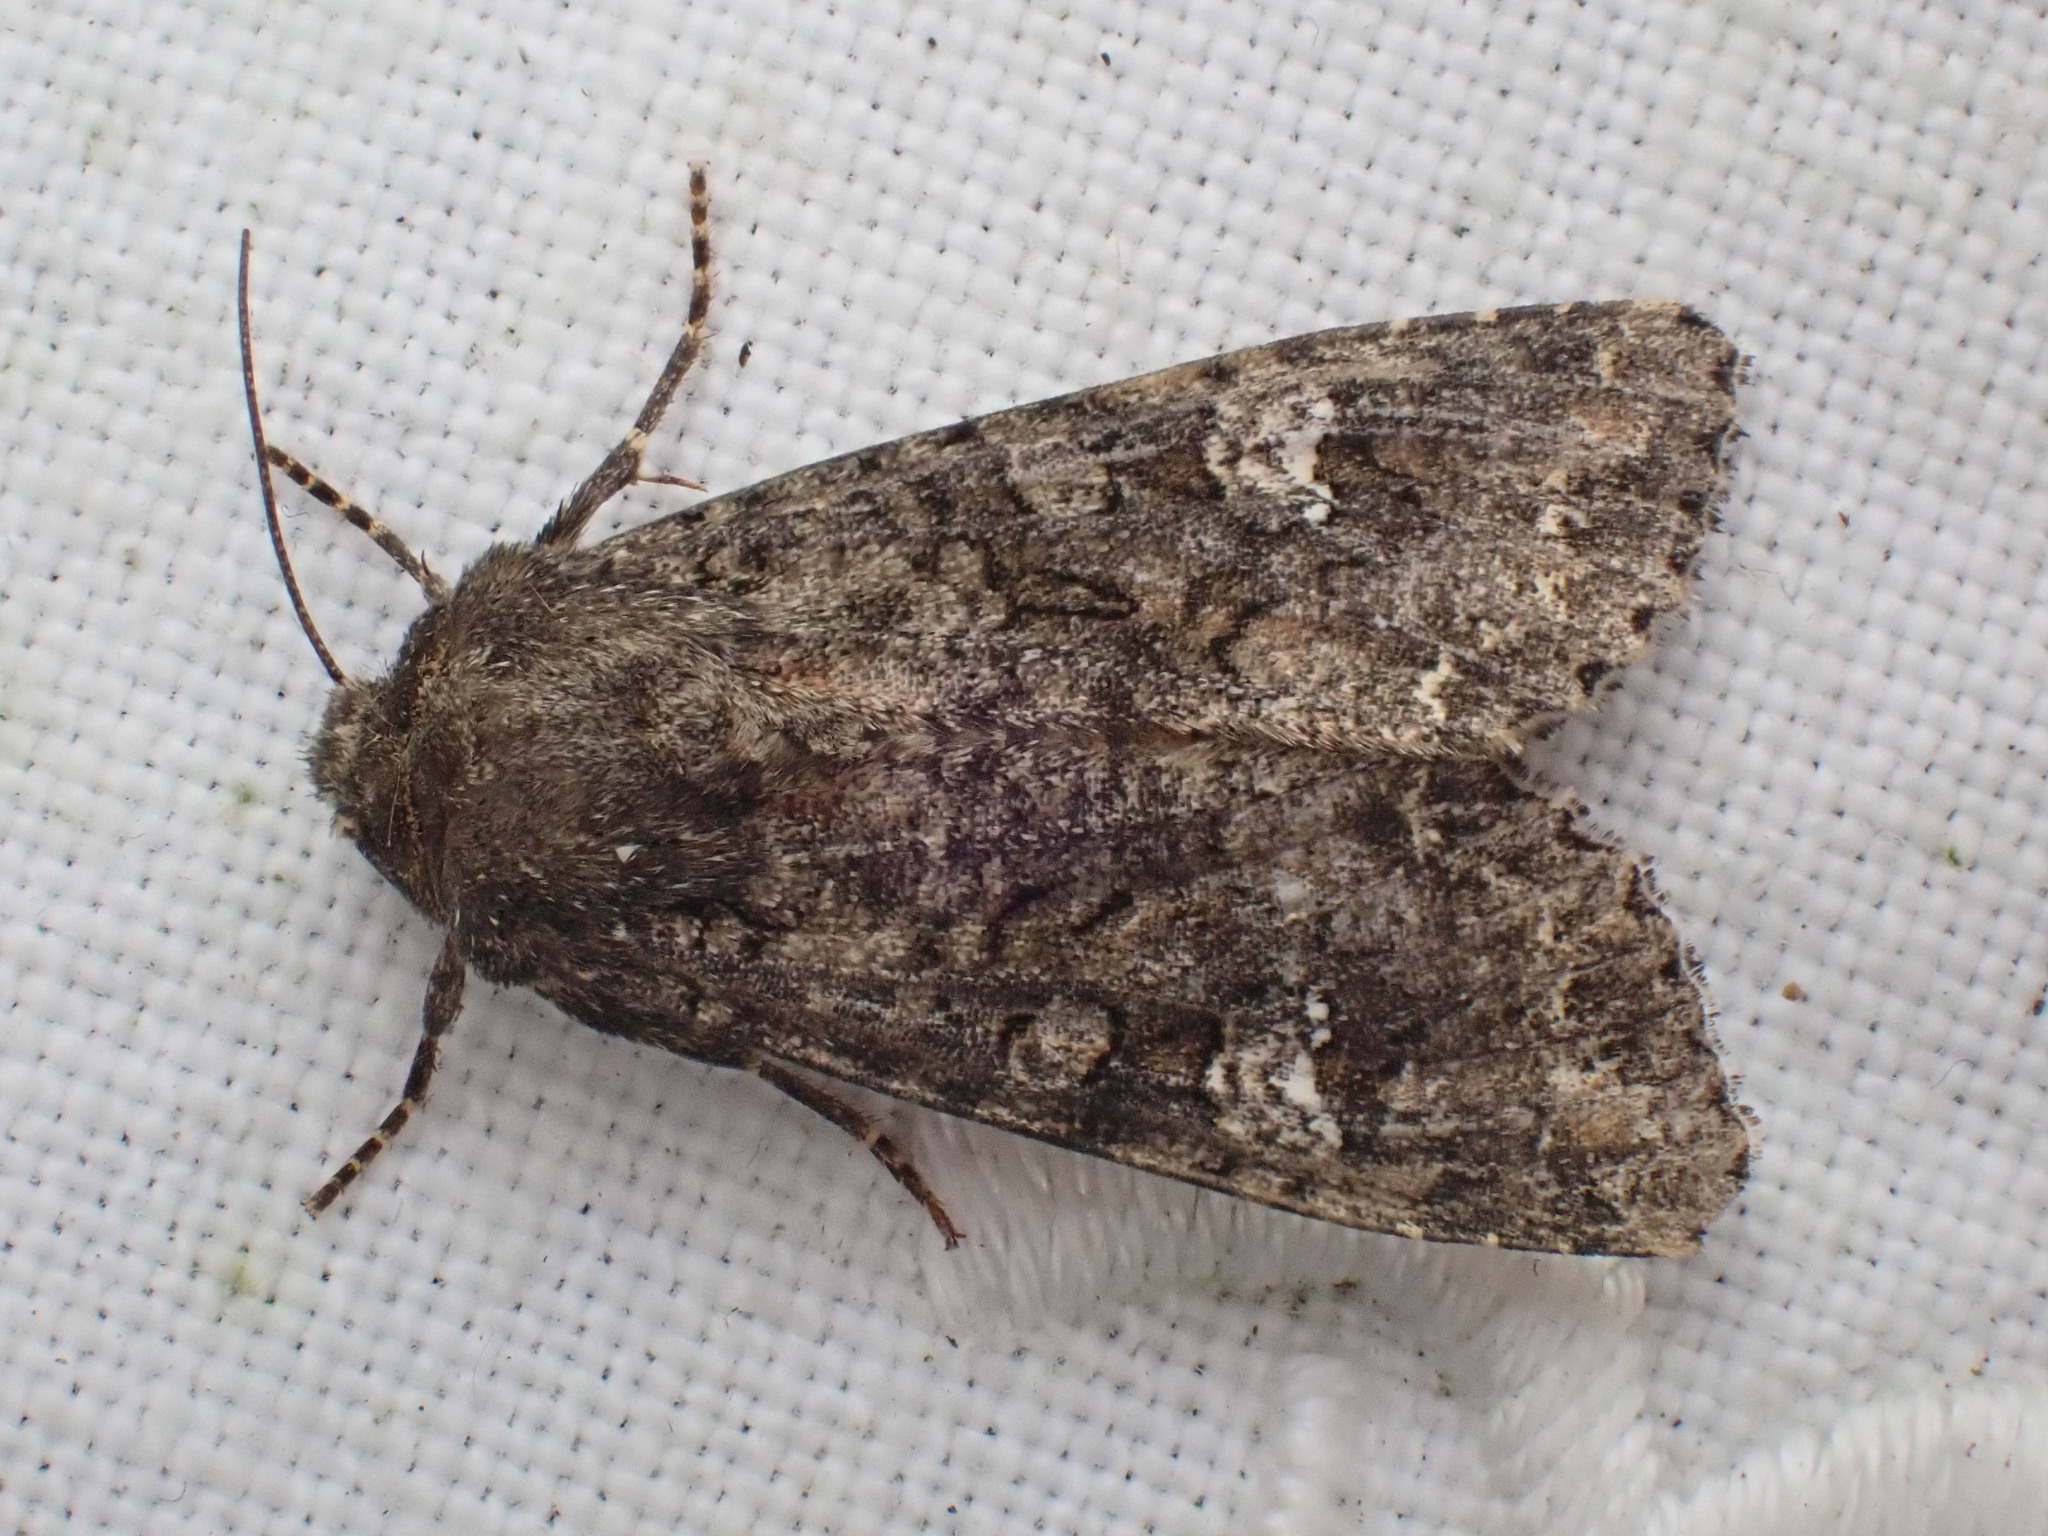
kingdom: Animalia
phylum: Arthropoda
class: Insecta
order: Lepidoptera
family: Noctuidae
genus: Mamestra
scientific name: Mamestra brassicae
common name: Cabbage moth
